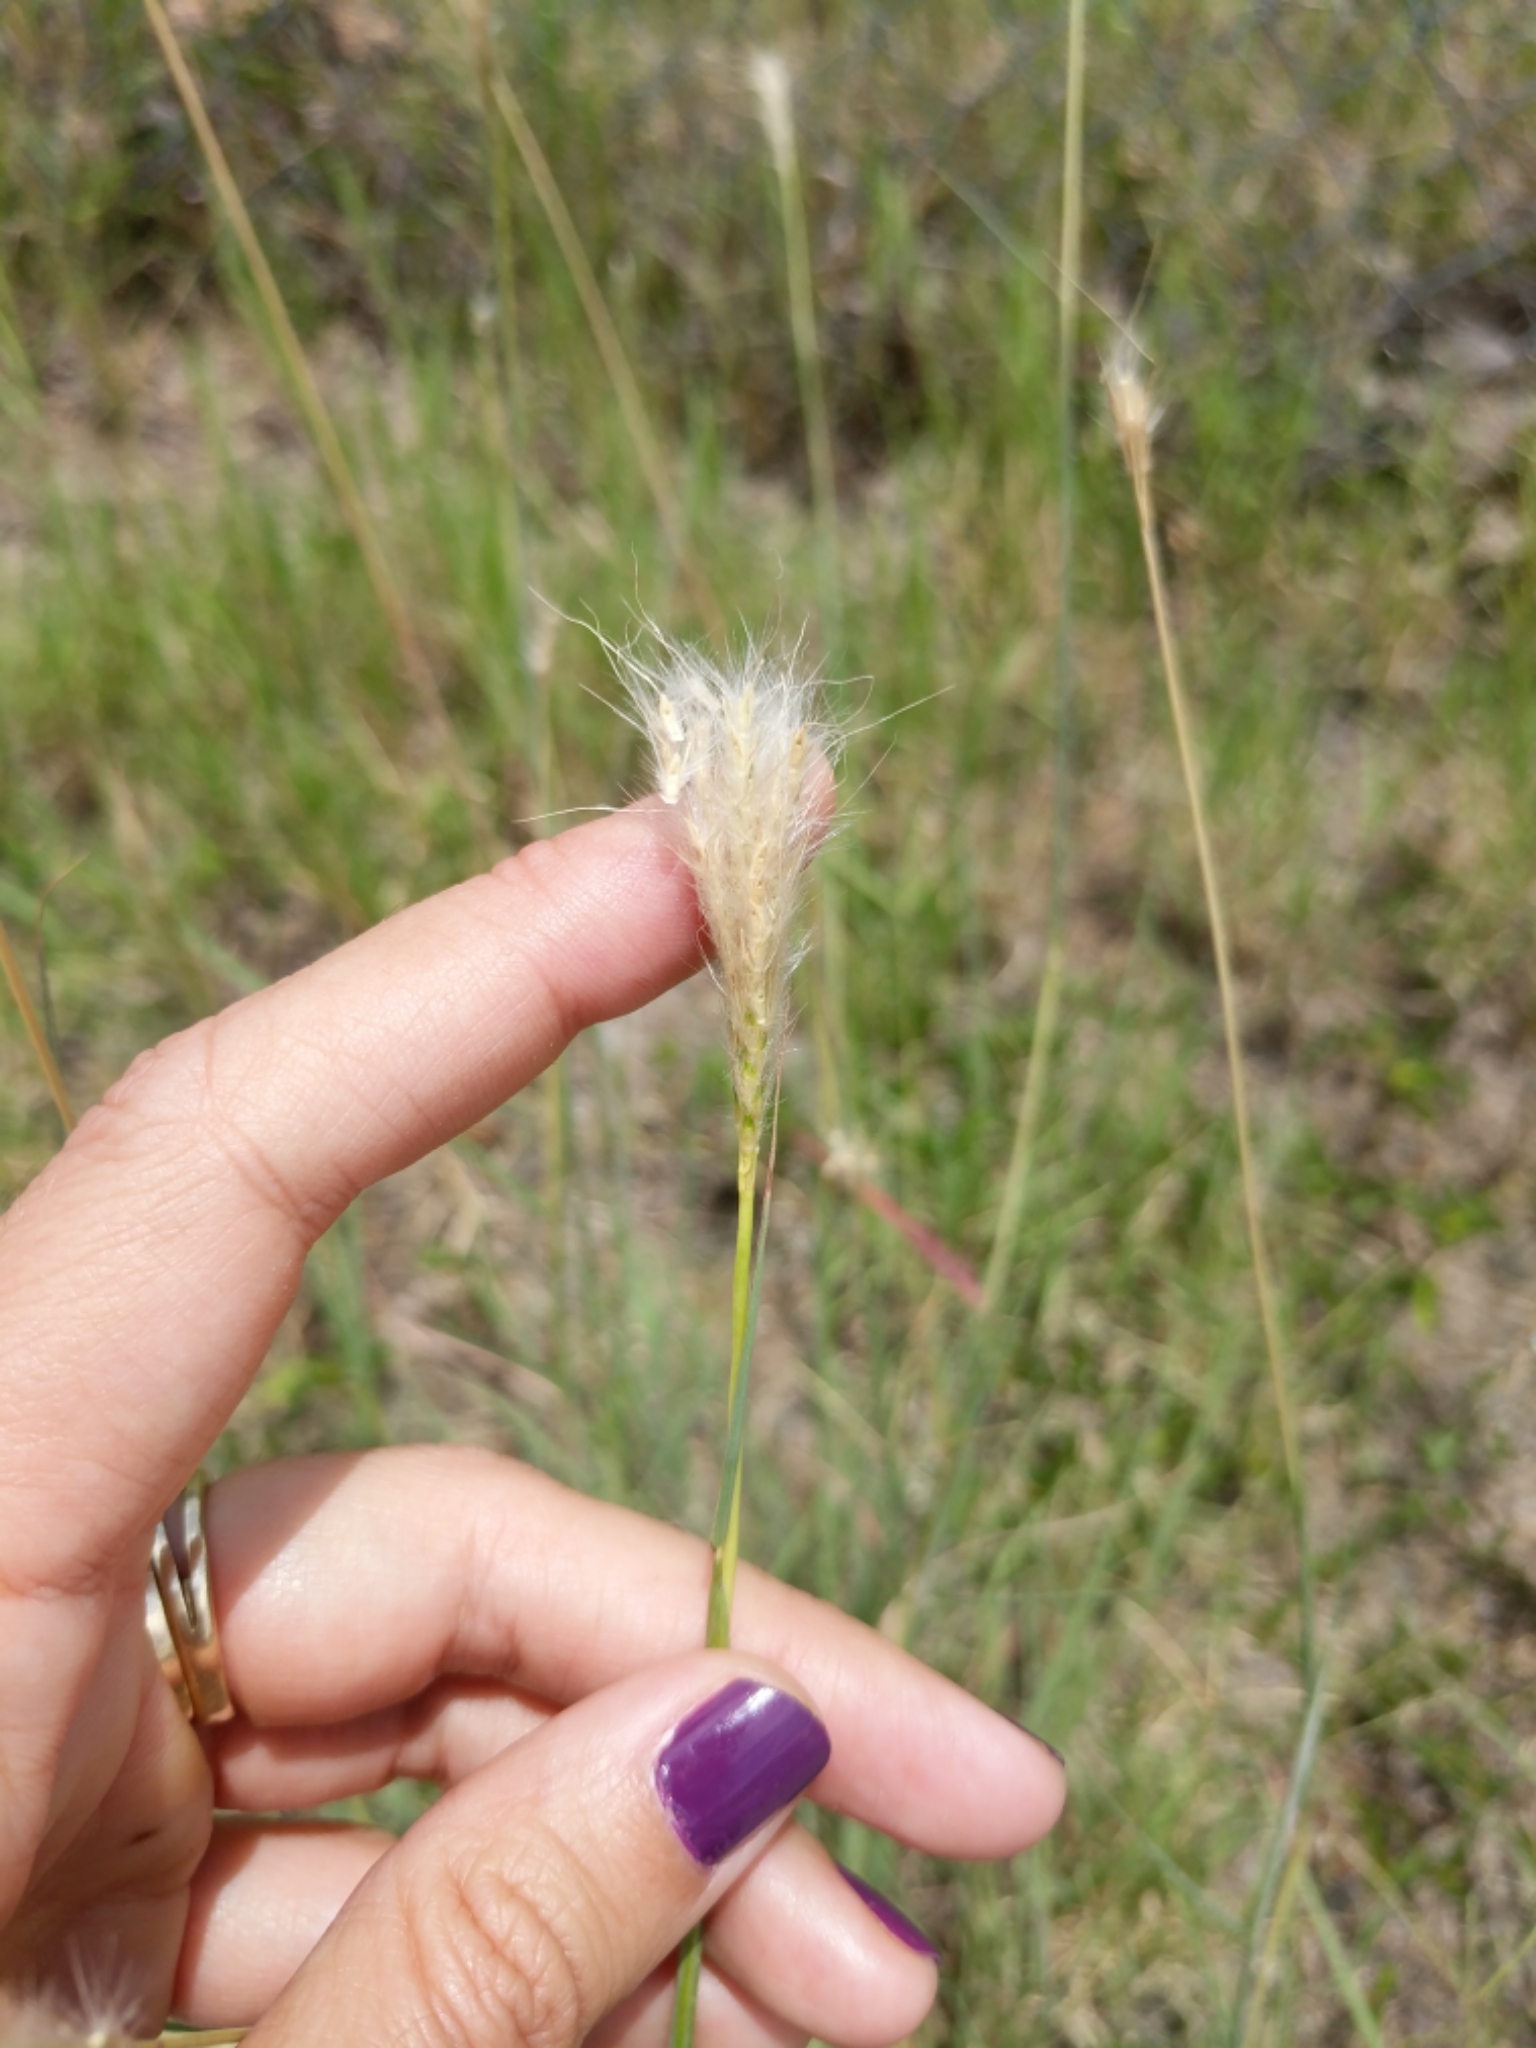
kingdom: Plantae
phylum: Tracheophyta
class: Liliopsida
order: Poales
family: Poaceae
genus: Bothriochloa
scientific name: Bothriochloa torreyana
